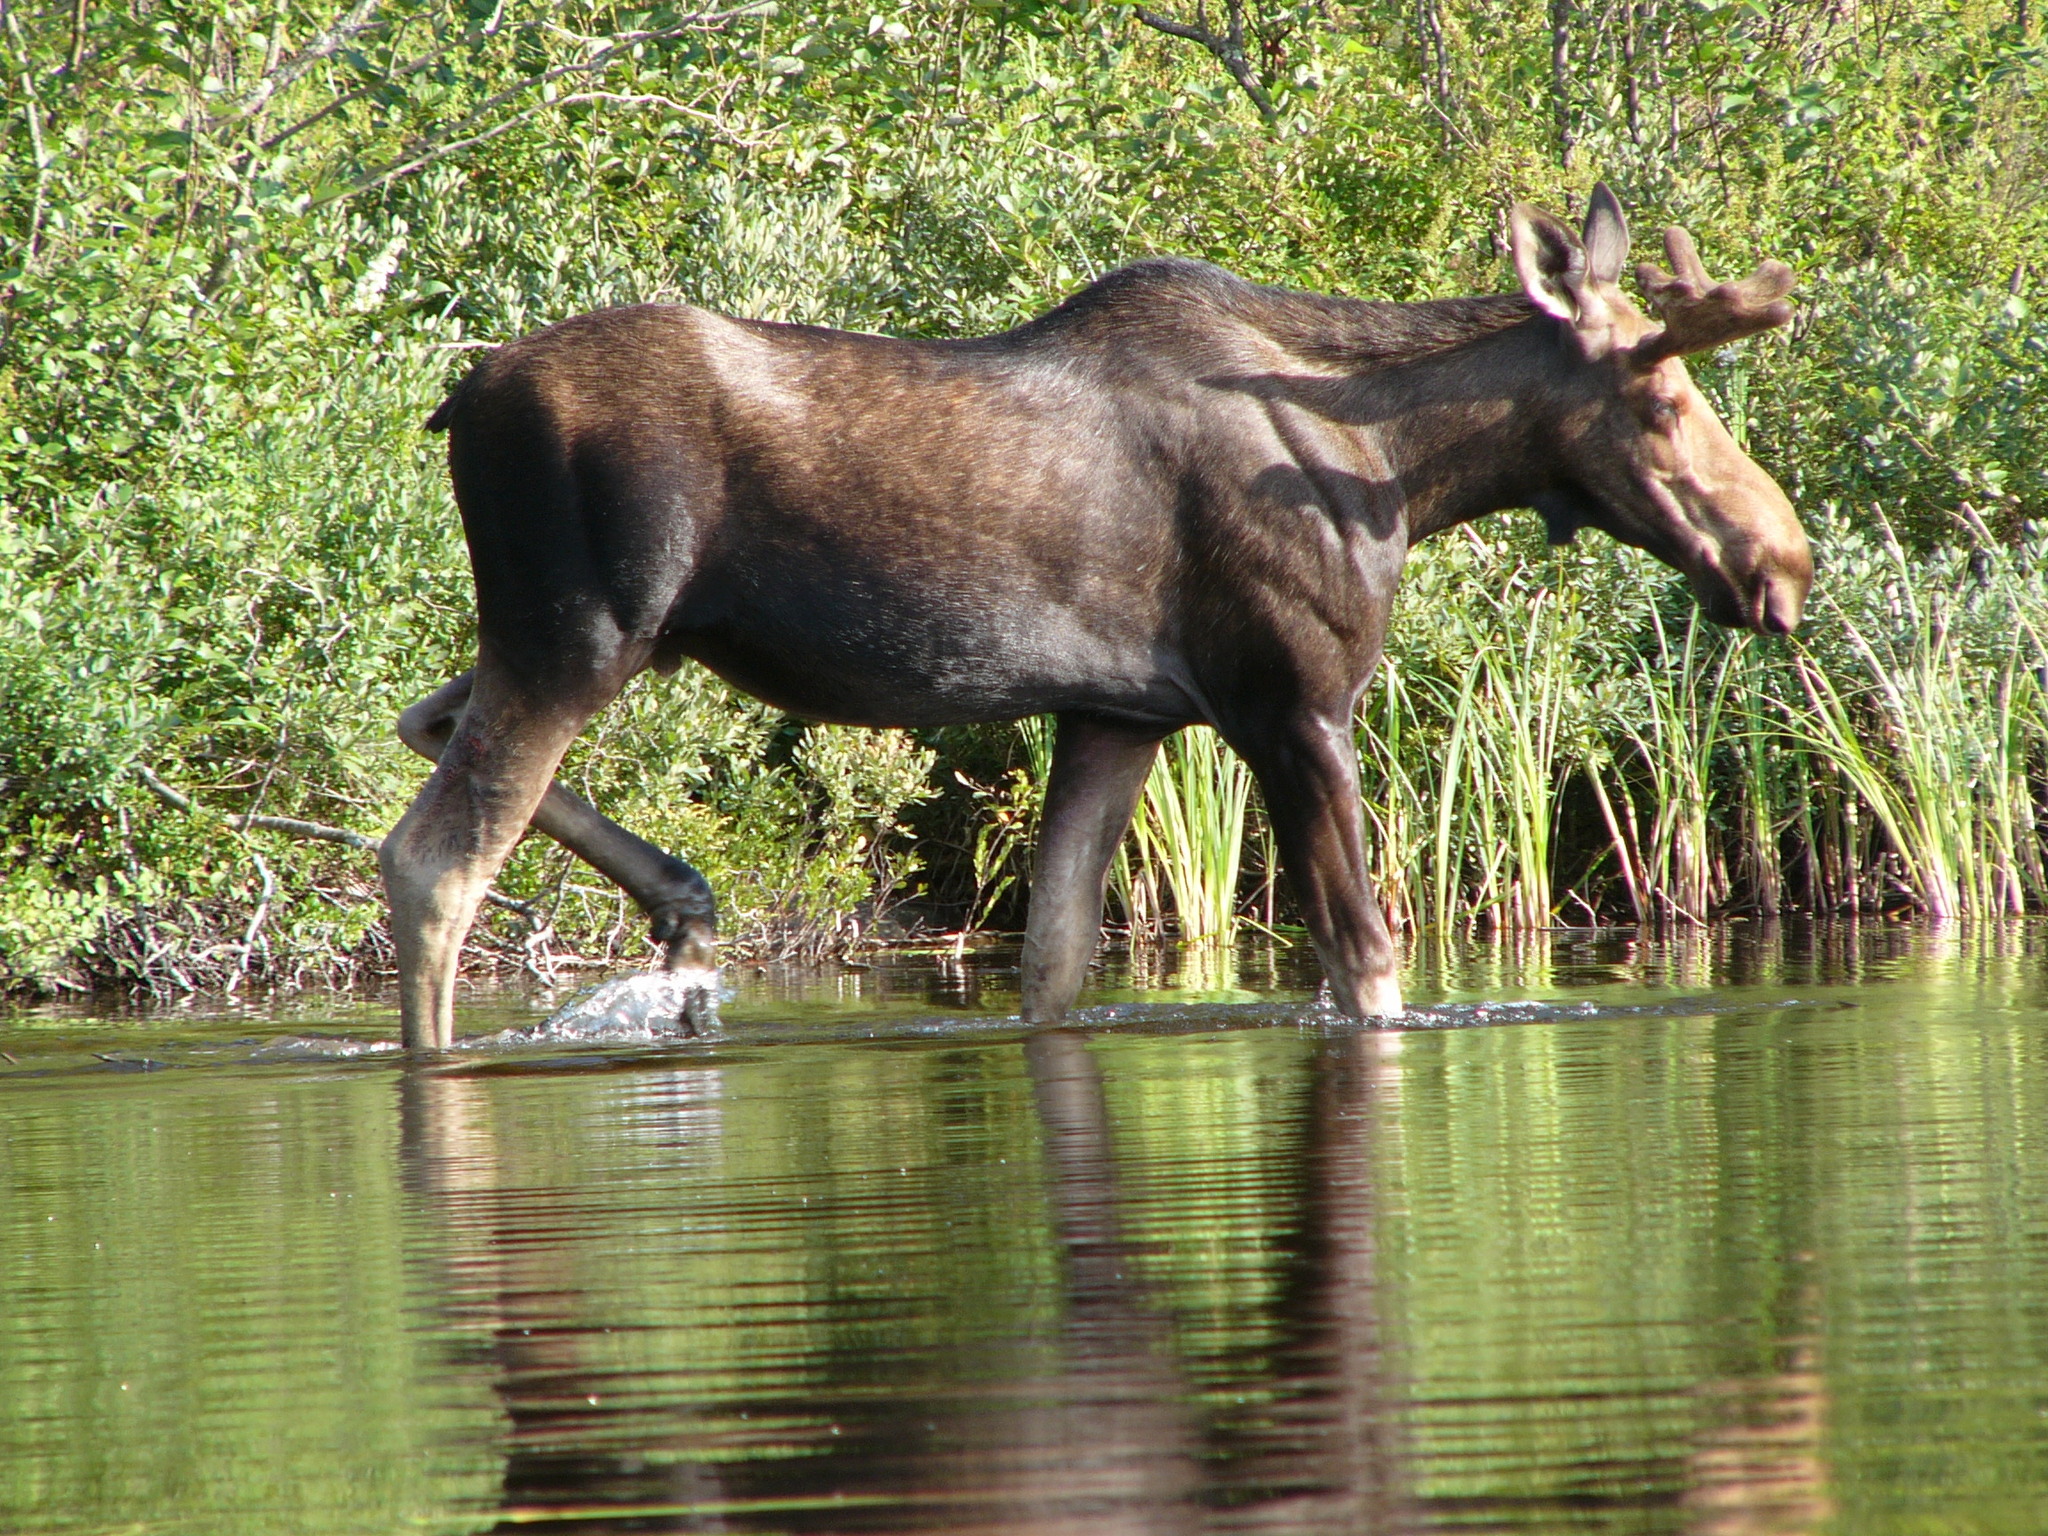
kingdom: Animalia
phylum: Chordata
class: Mammalia
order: Artiodactyla
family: Cervidae
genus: Alces
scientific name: Alces alces
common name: Moose
